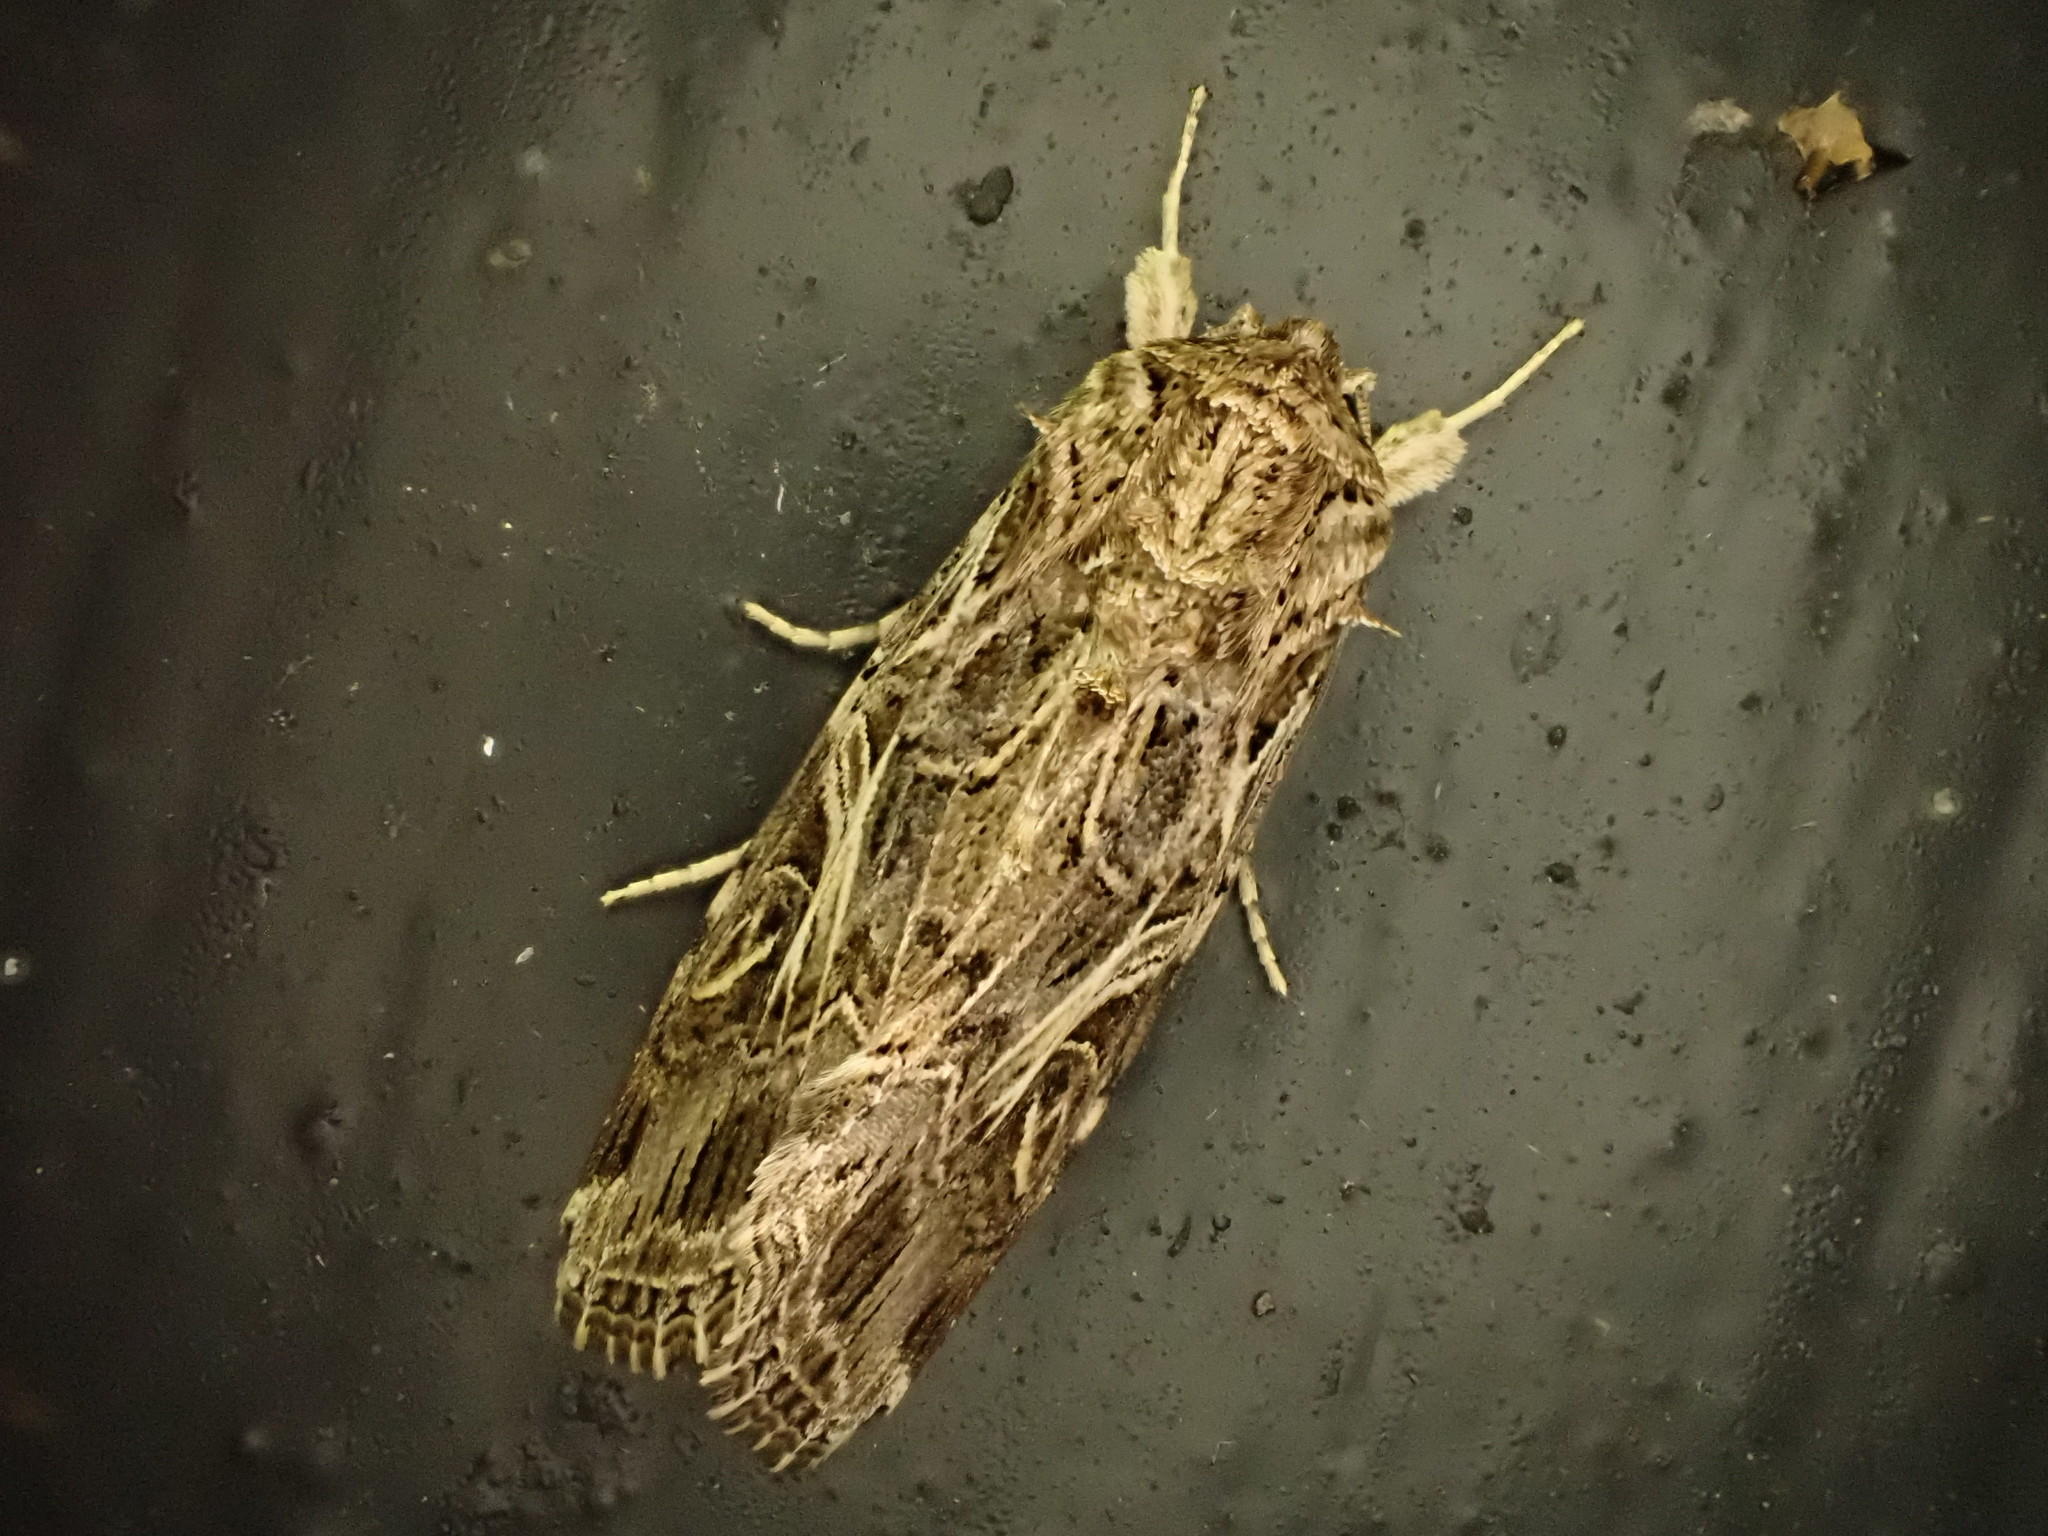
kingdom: Animalia
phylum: Arthropoda
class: Insecta
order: Lepidoptera
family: Noctuidae
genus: Spodoptera
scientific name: Spodoptera litura
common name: Asian cotton leafworm
